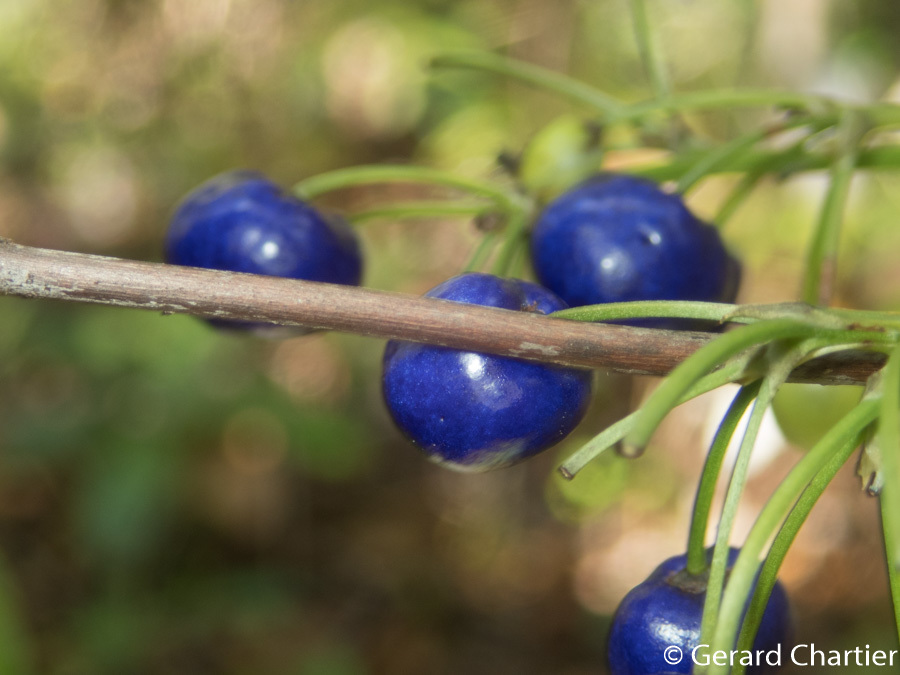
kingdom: Plantae
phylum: Tracheophyta
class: Liliopsida
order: Asparagales
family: Asphodelaceae
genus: Dianella
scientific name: Dianella ensifolia
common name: New zealand lilyplant
